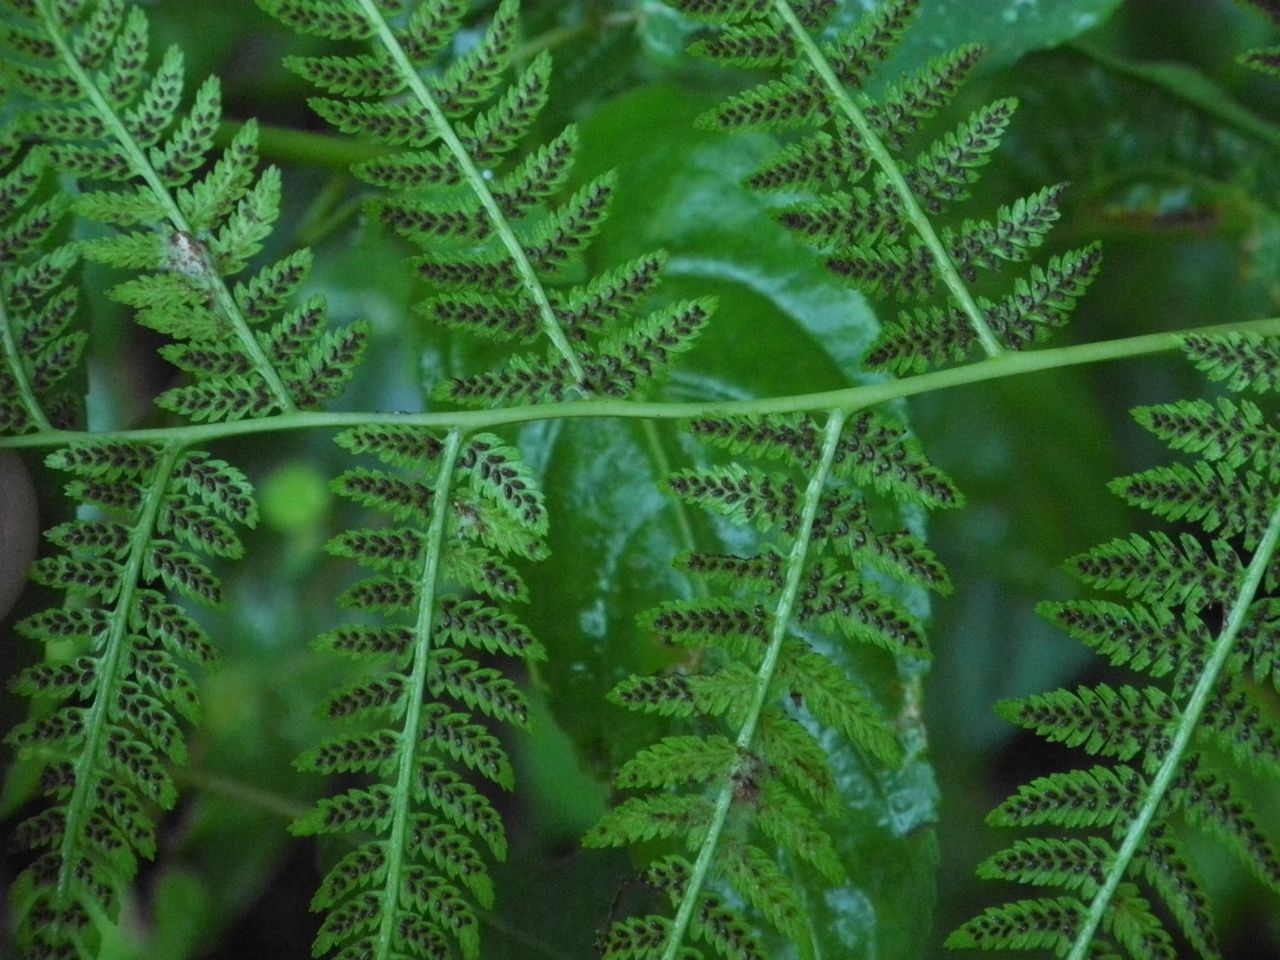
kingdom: Plantae
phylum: Tracheophyta
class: Polypodiopsida
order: Polypodiales
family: Athyriaceae
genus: Athyrium
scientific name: Athyrium asplenioides
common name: Southern lady fern
